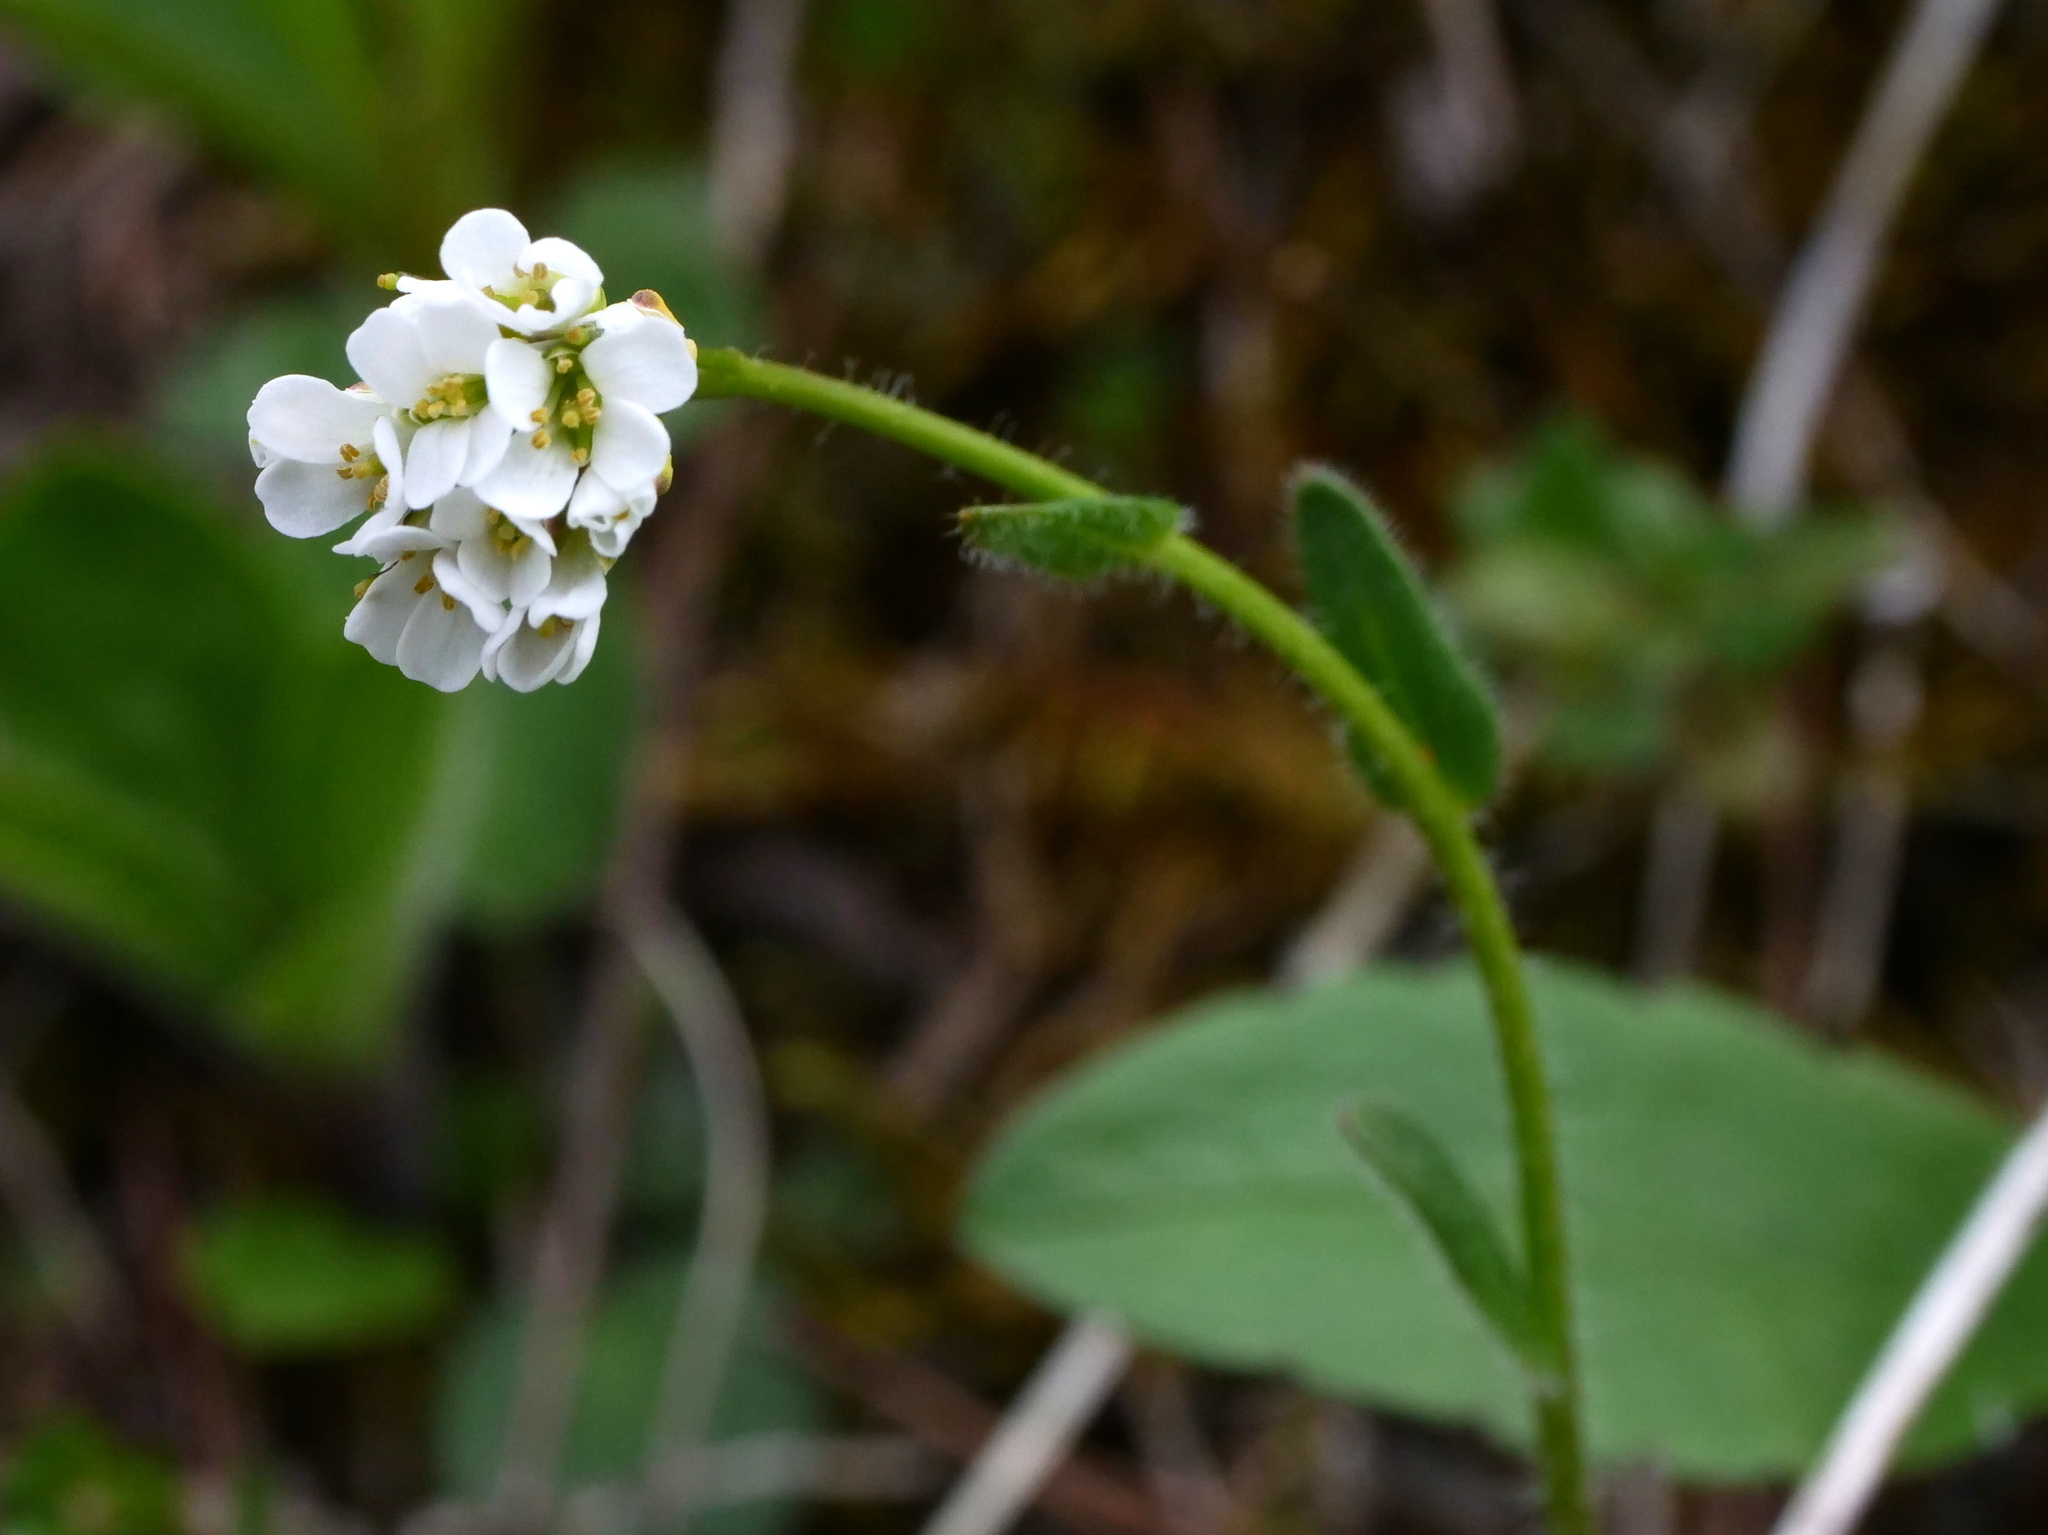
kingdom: Plantae
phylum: Tracheophyta
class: Magnoliopsida
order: Brassicales
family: Brassicaceae
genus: Arabis
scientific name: Arabis ciliata
